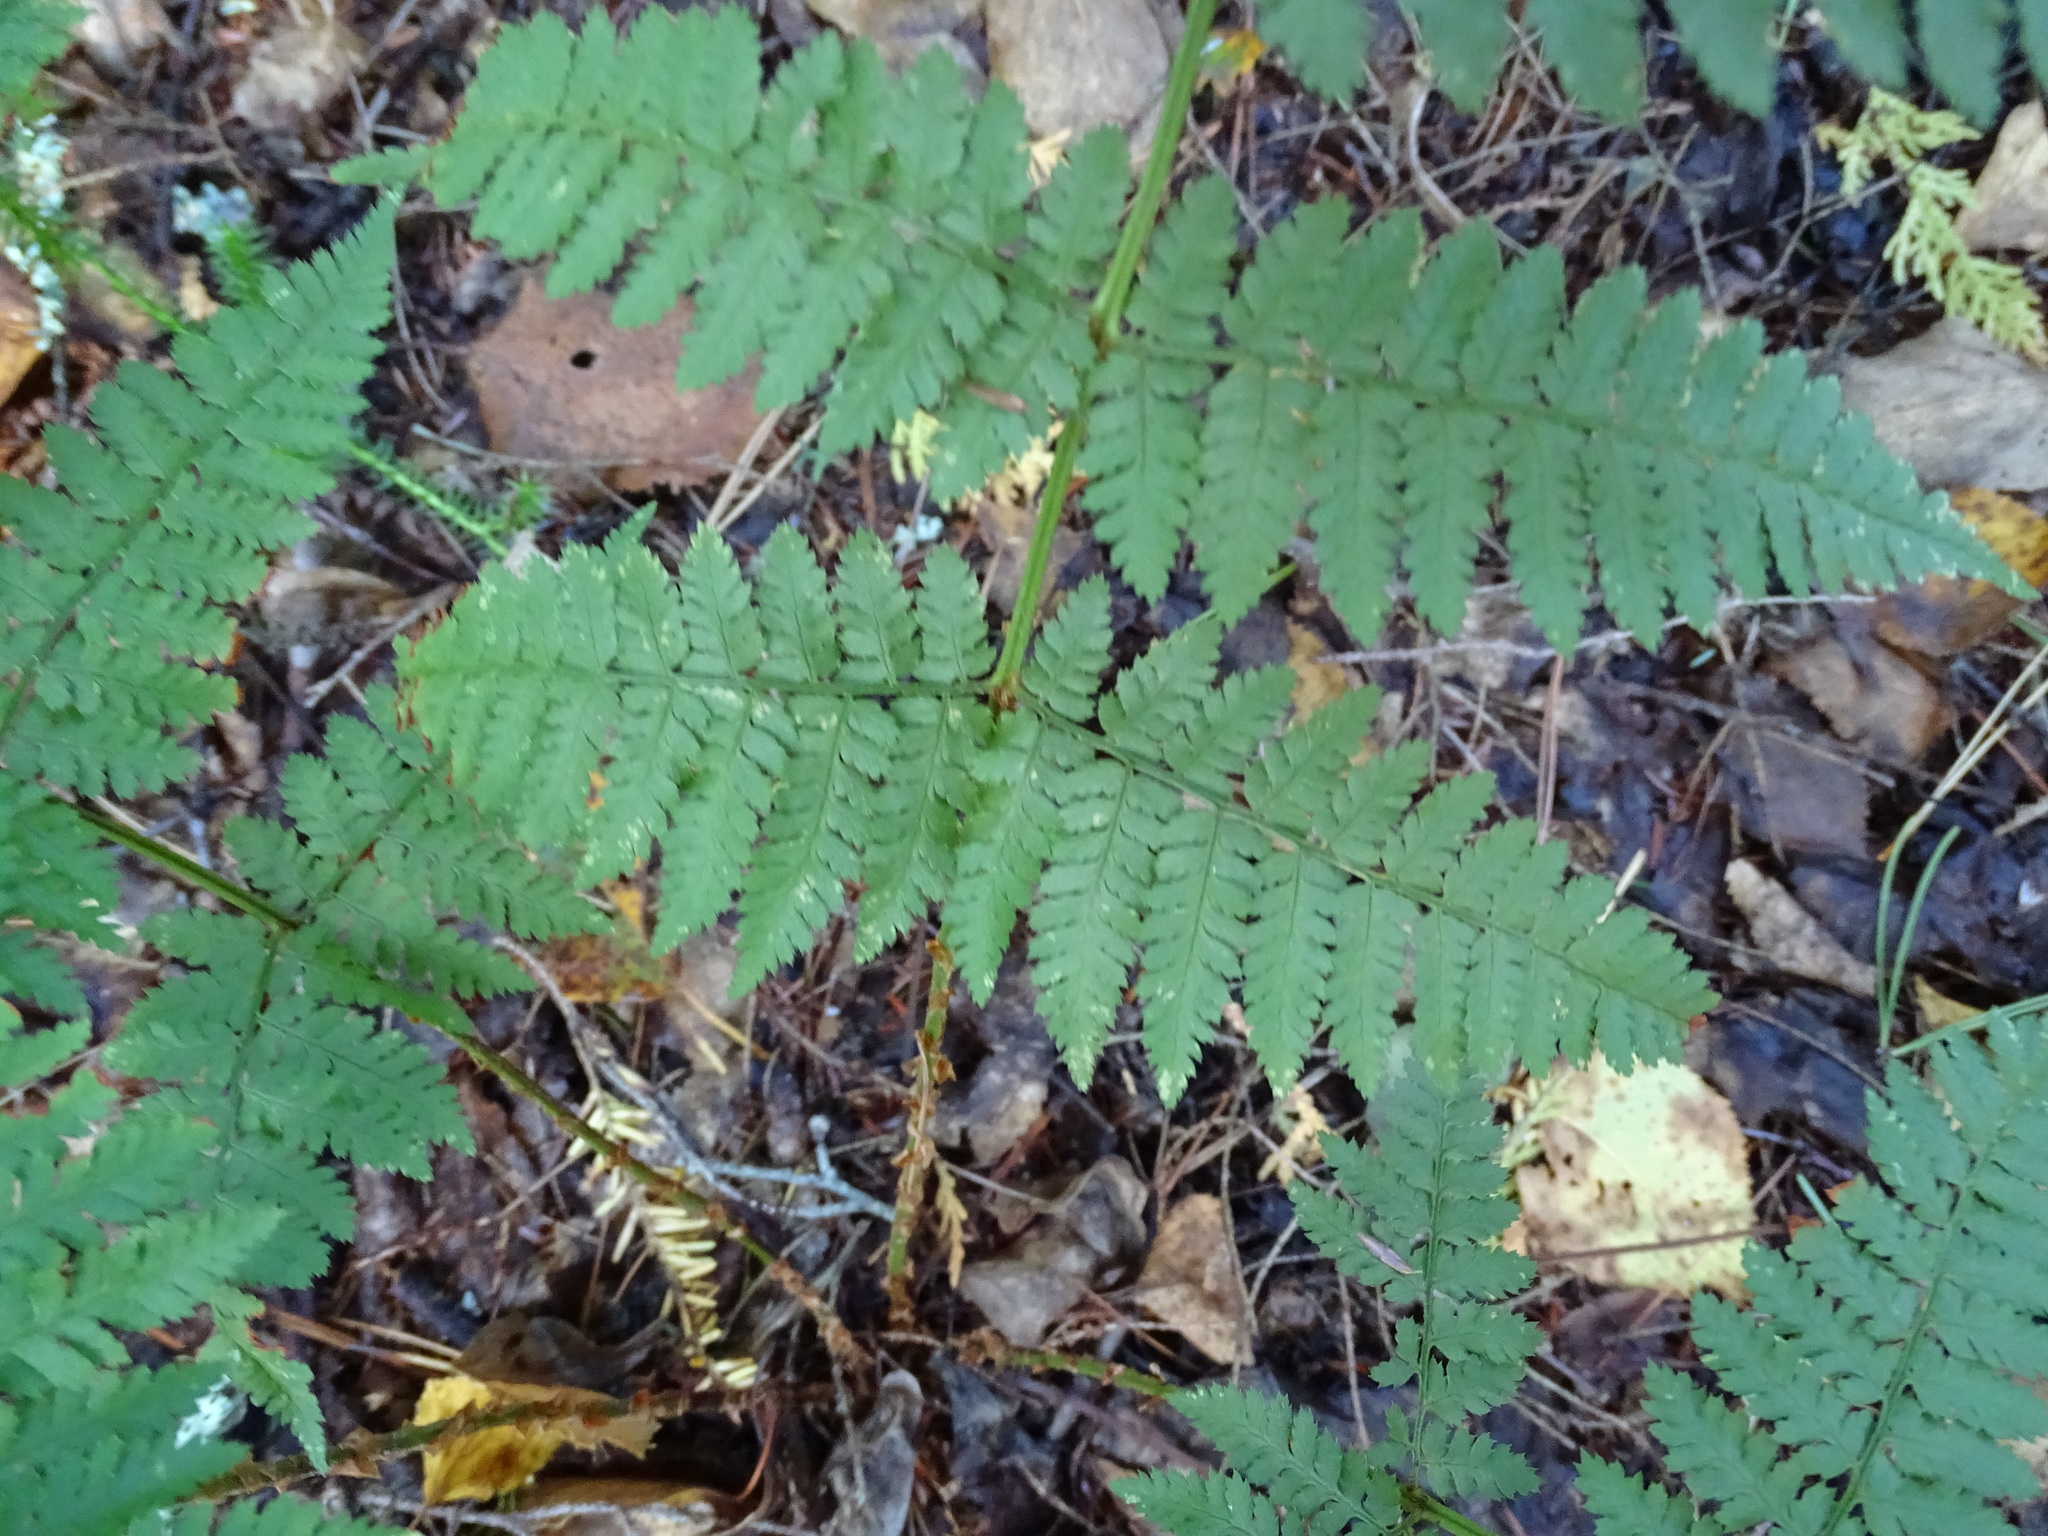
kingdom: Plantae
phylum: Tracheophyta
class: Polypodiopsida
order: Polypodiales
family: Dryopteridaceae
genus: Dryopteris
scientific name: Dryopteris intermedia
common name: Evergreen wood fern
